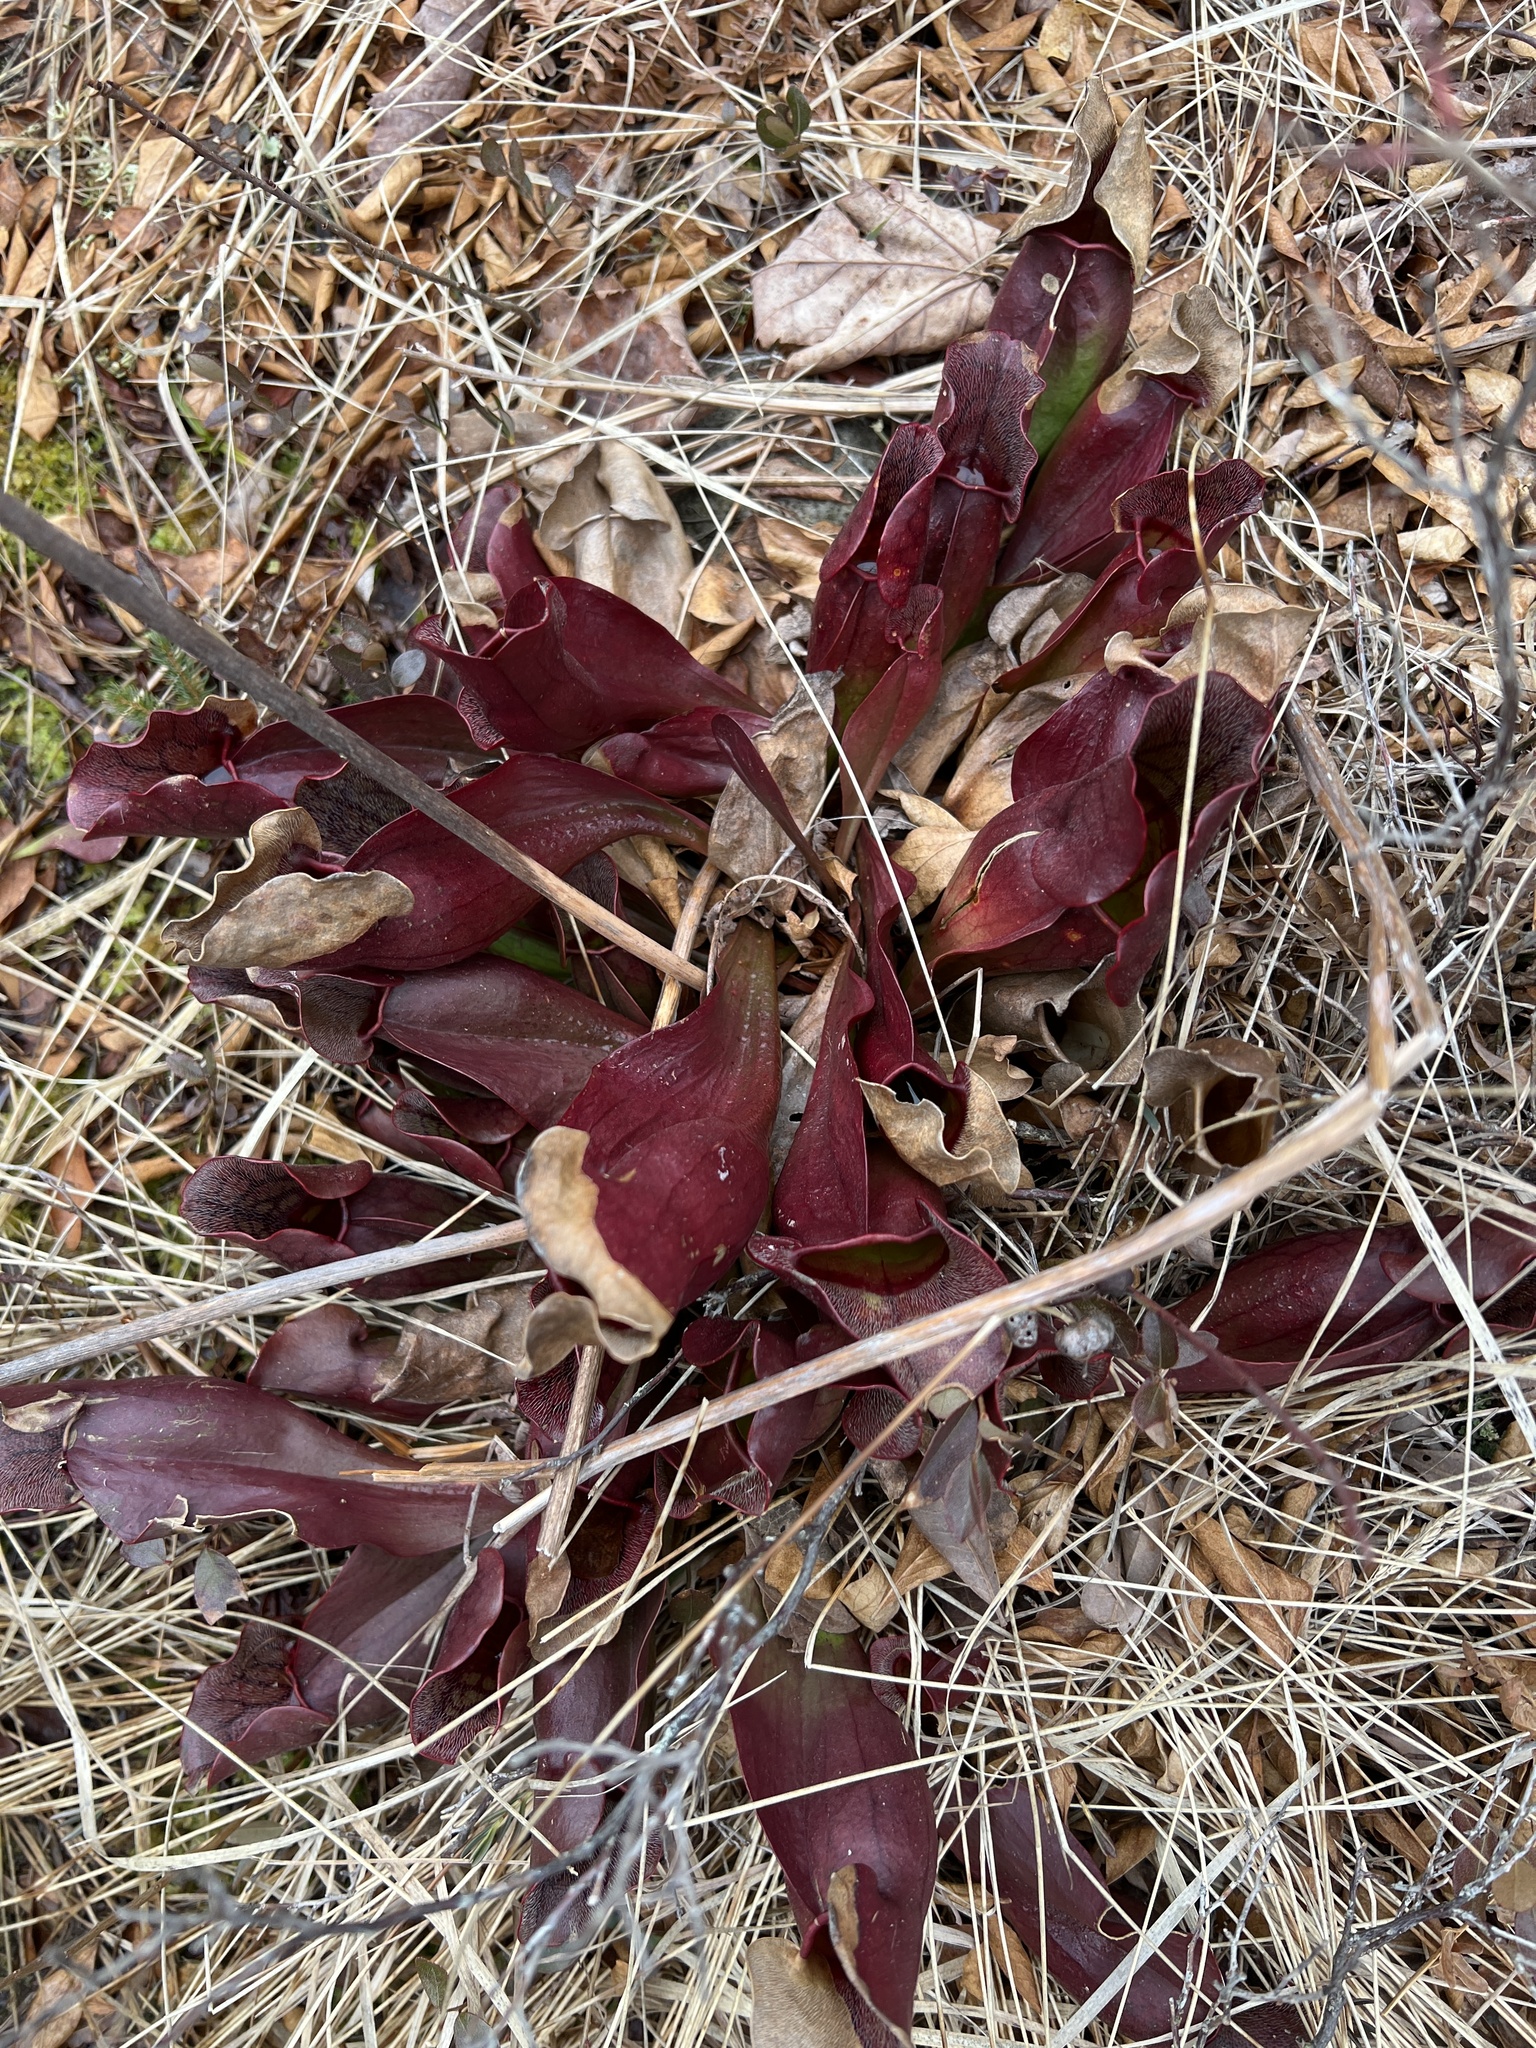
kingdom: Plantae
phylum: Tracheophyta
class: Magnoliopsida
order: Ericales
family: Sarraceniaceae
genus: Sarracenia
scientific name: Sarracenia purpurea
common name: Pitcherplant
